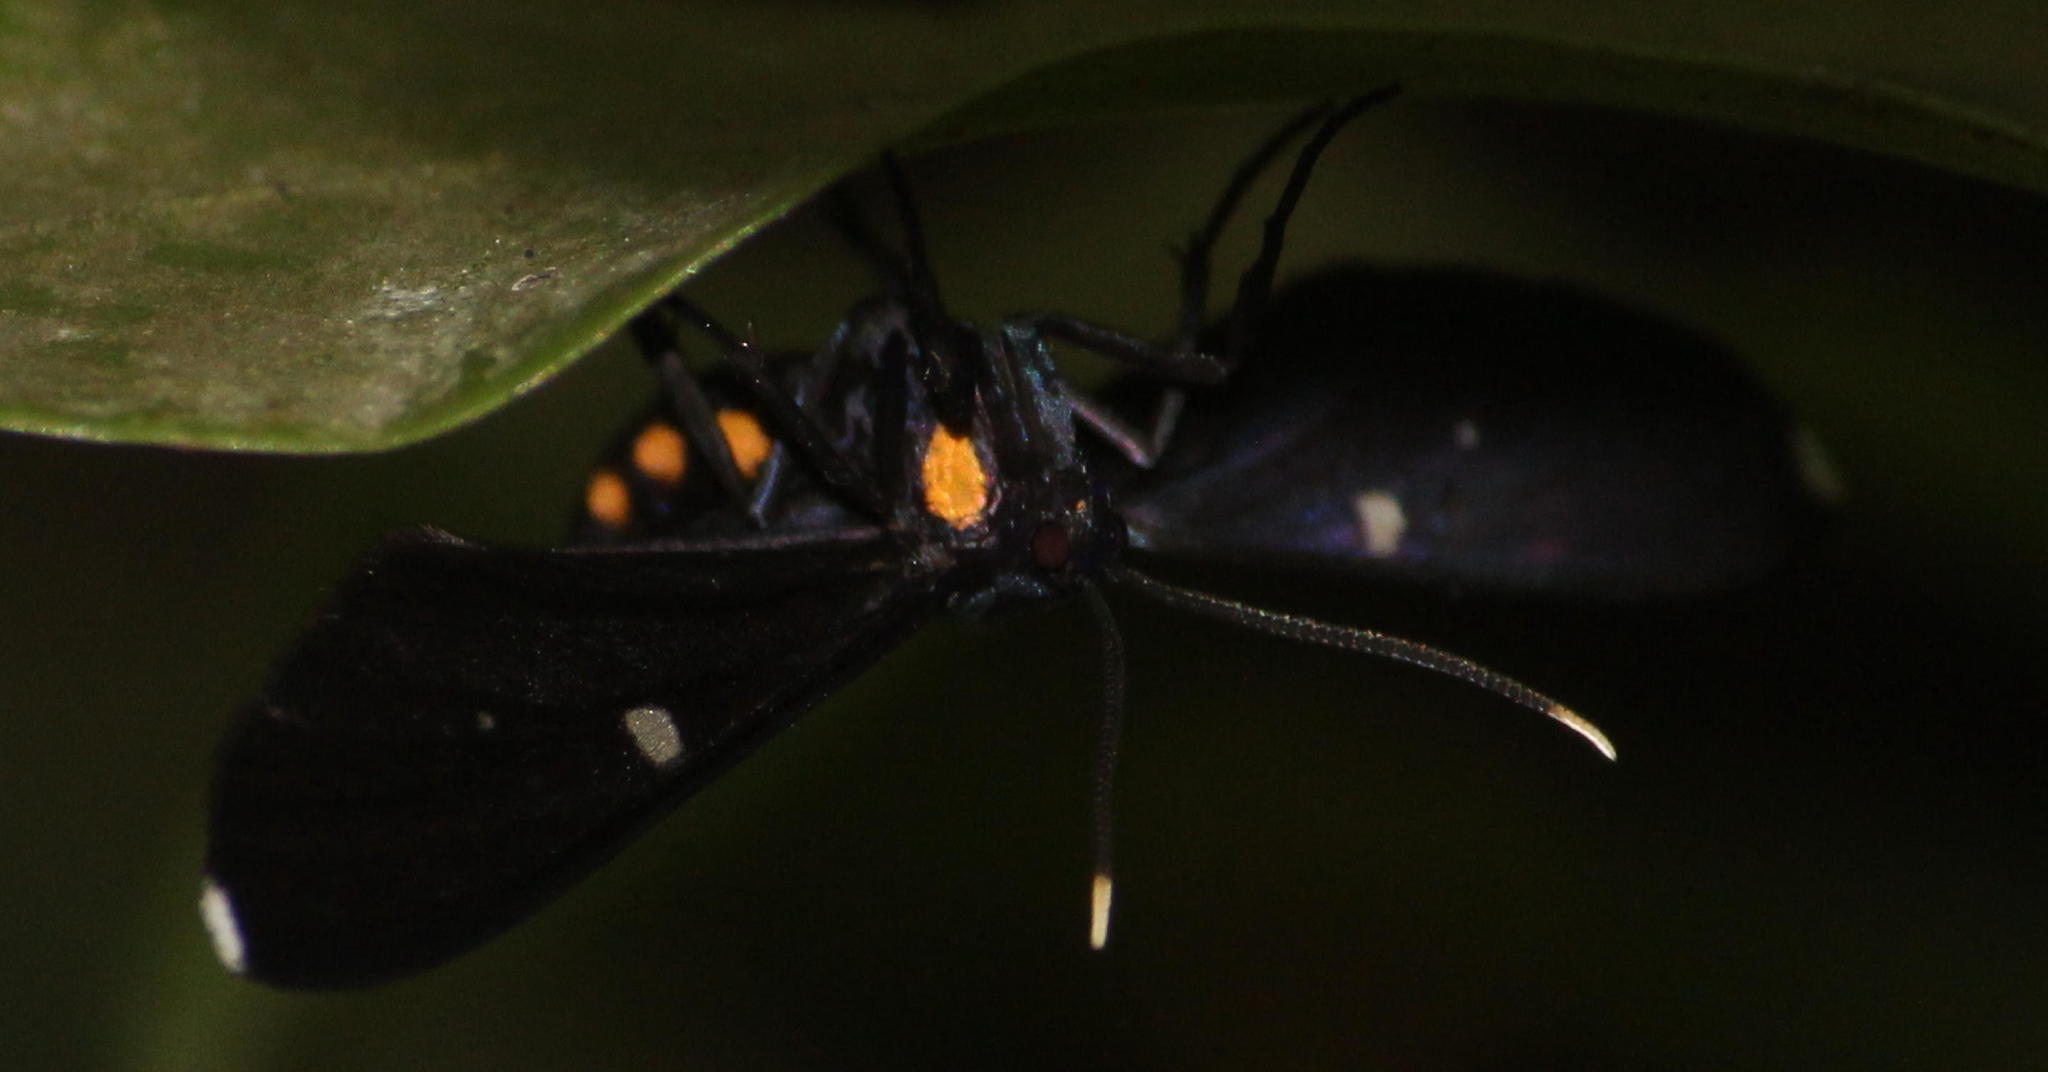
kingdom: Animalia
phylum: Arthropoda
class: Insecta
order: Lepidoptera
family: Erebidae
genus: Amata
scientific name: Amata simplex
